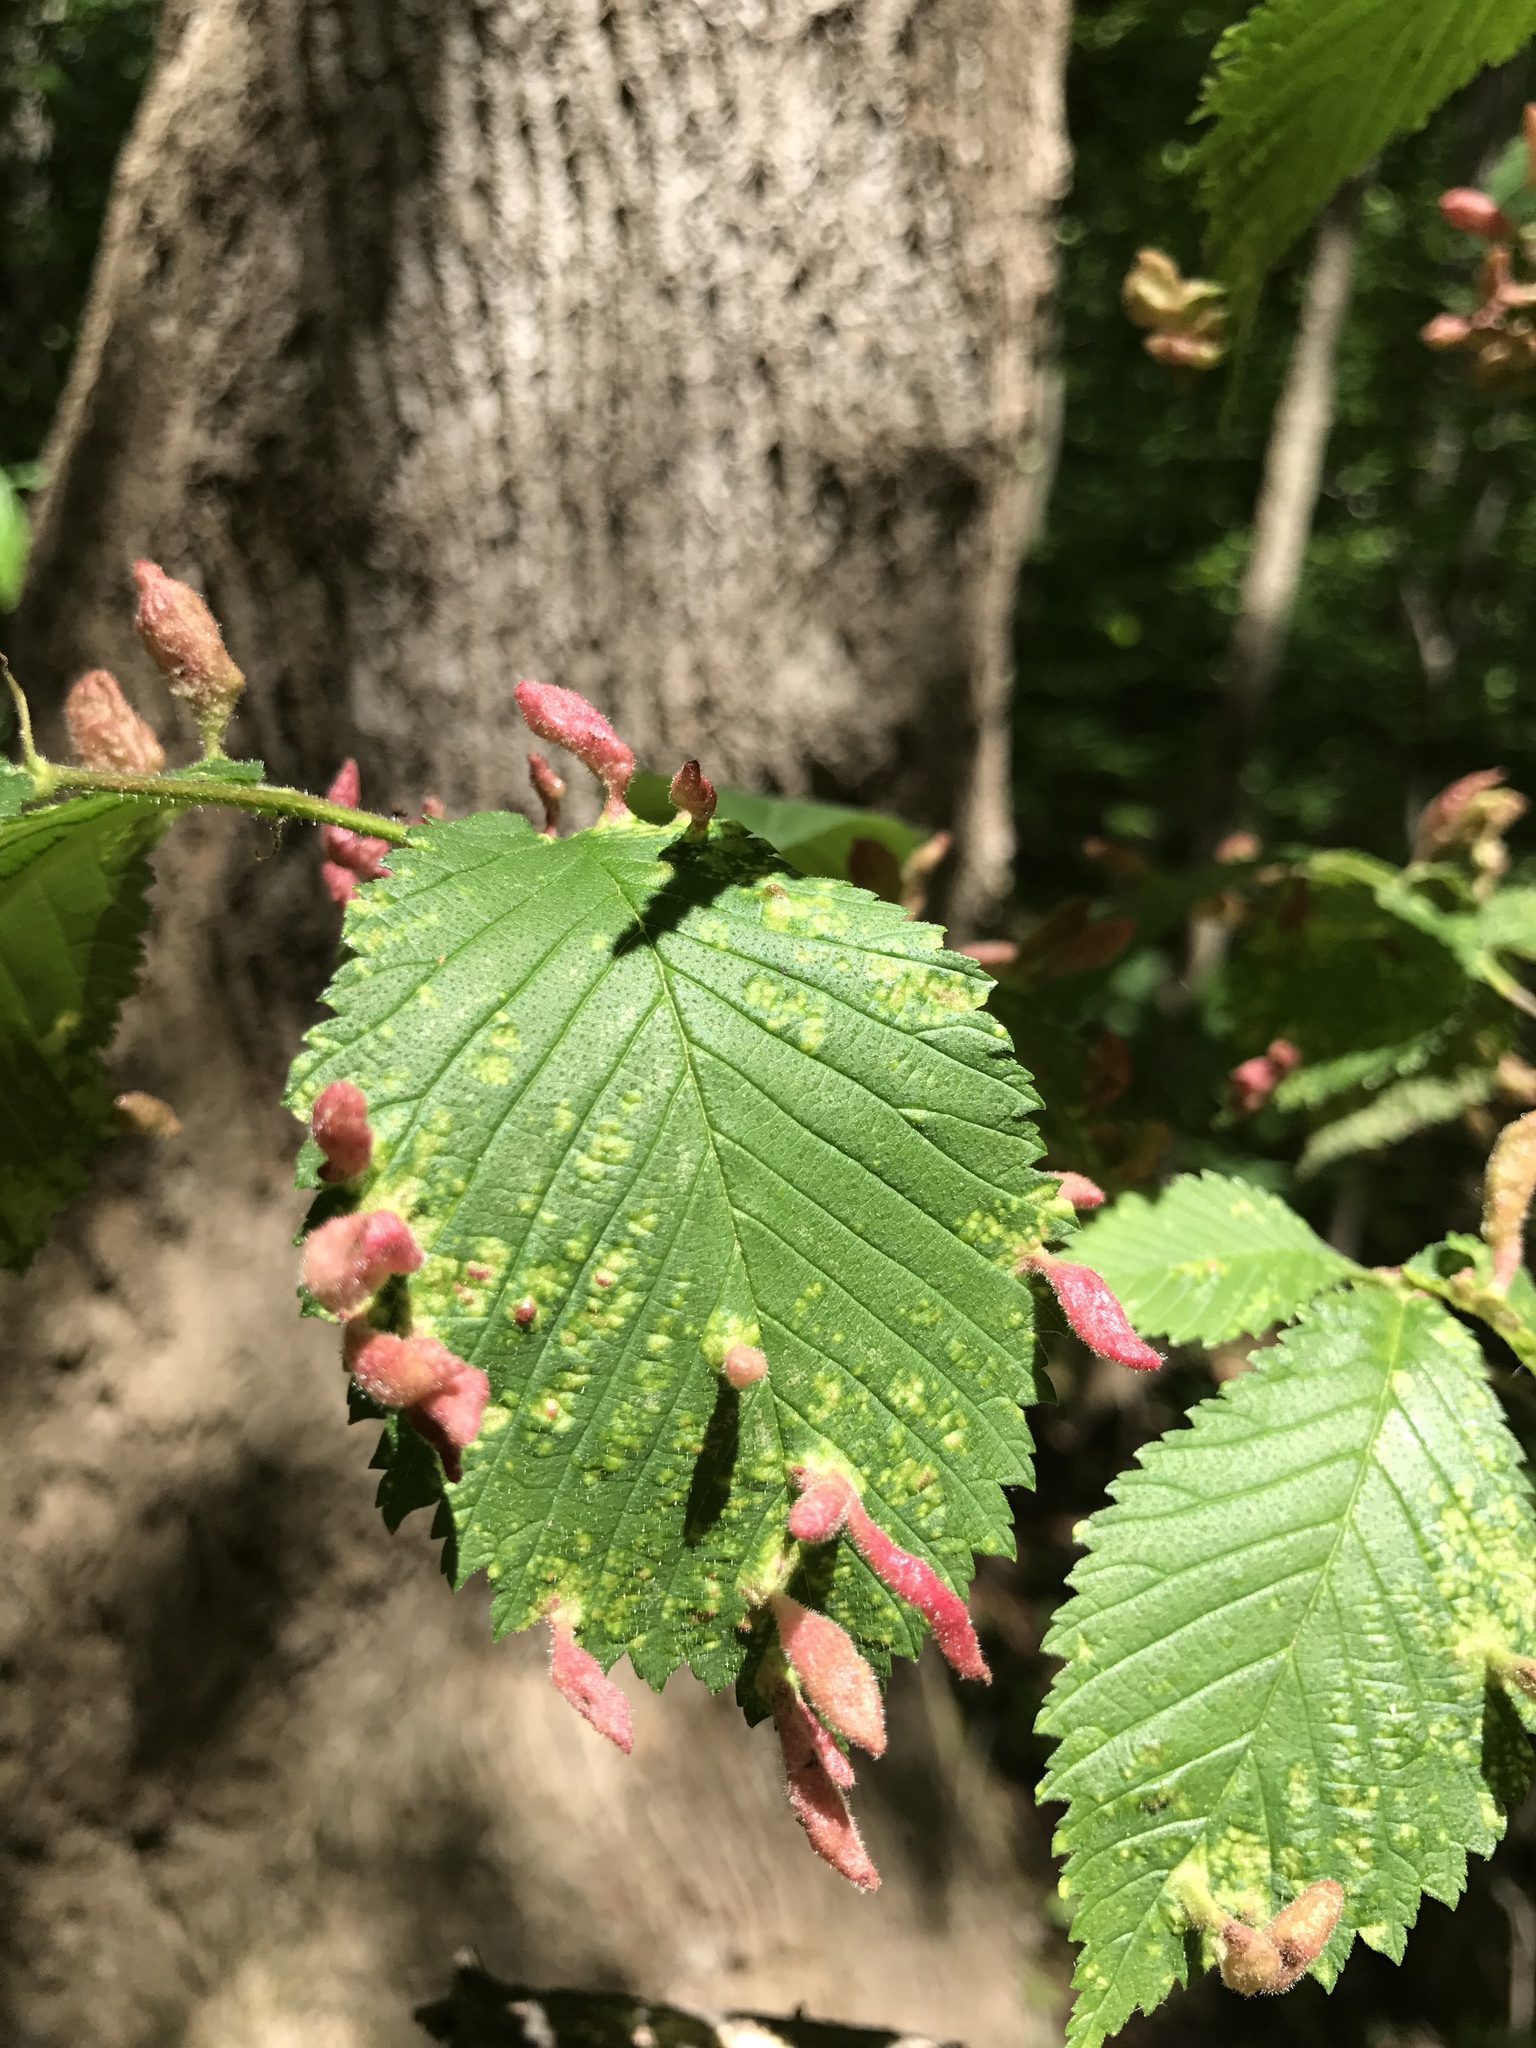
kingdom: Plantae
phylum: Tracheophyta
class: Magnoliopsida
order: Rosales
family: Ulmaceae
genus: Ulmus
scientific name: Ulmus rubra
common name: Slippery elm
